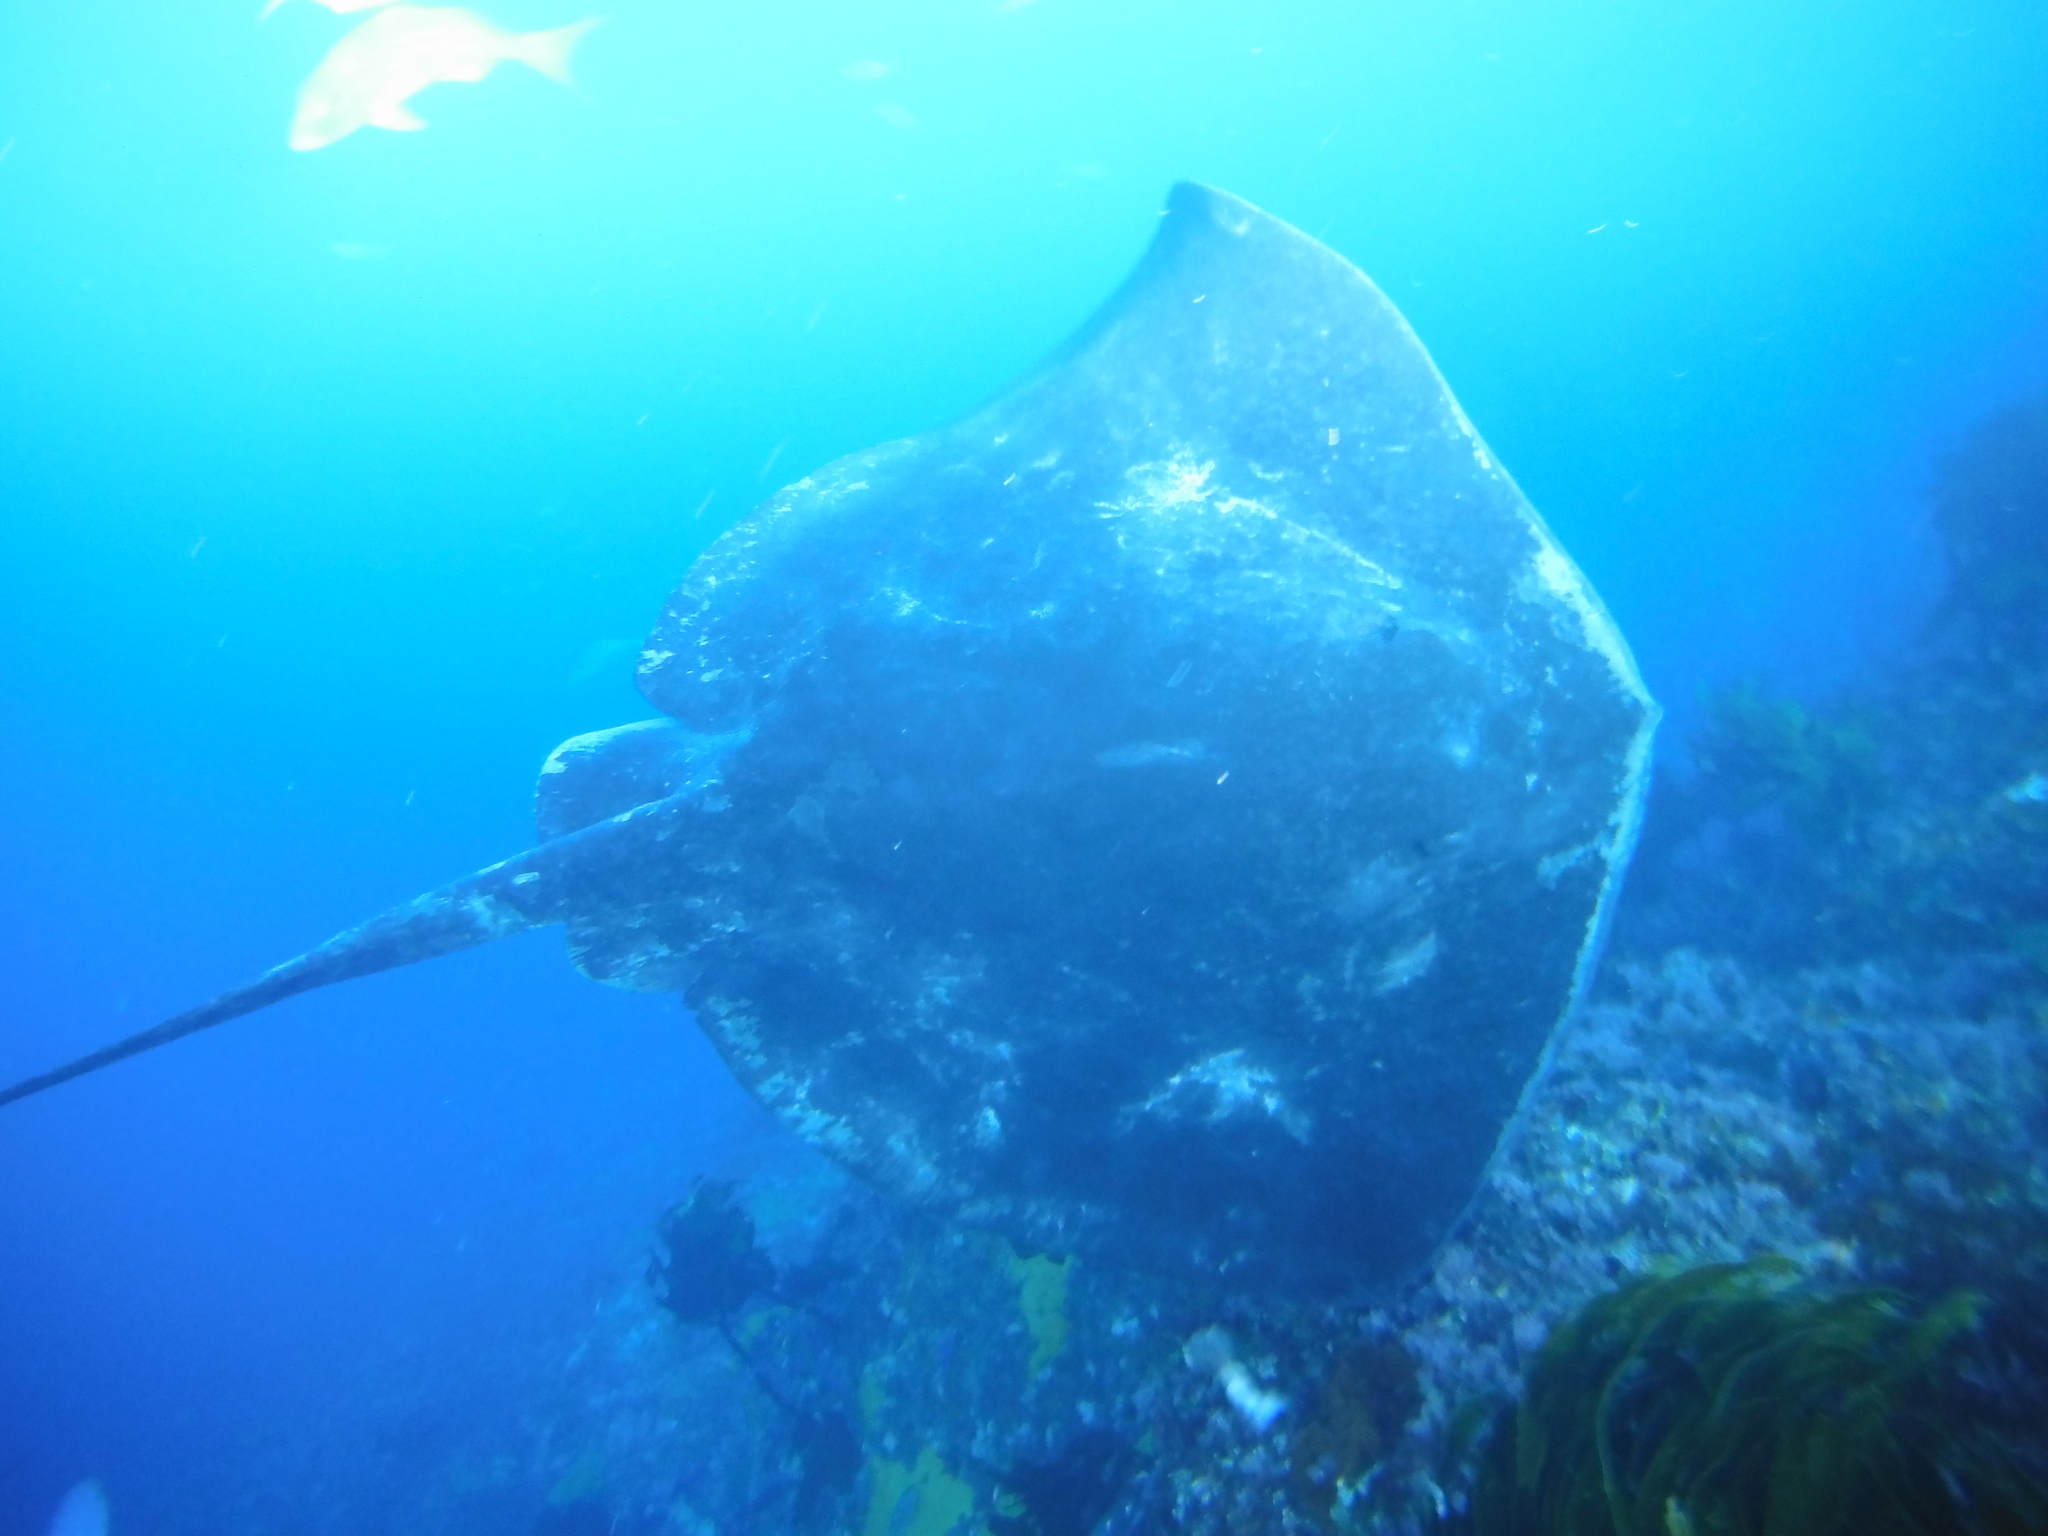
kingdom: Animalia
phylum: Chordata
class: Elasmobranchii
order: Myliobatiformes
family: Dasyatidae
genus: Bathytoshia
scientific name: Bathytoshia brevicaudata
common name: Short-tail stingray
